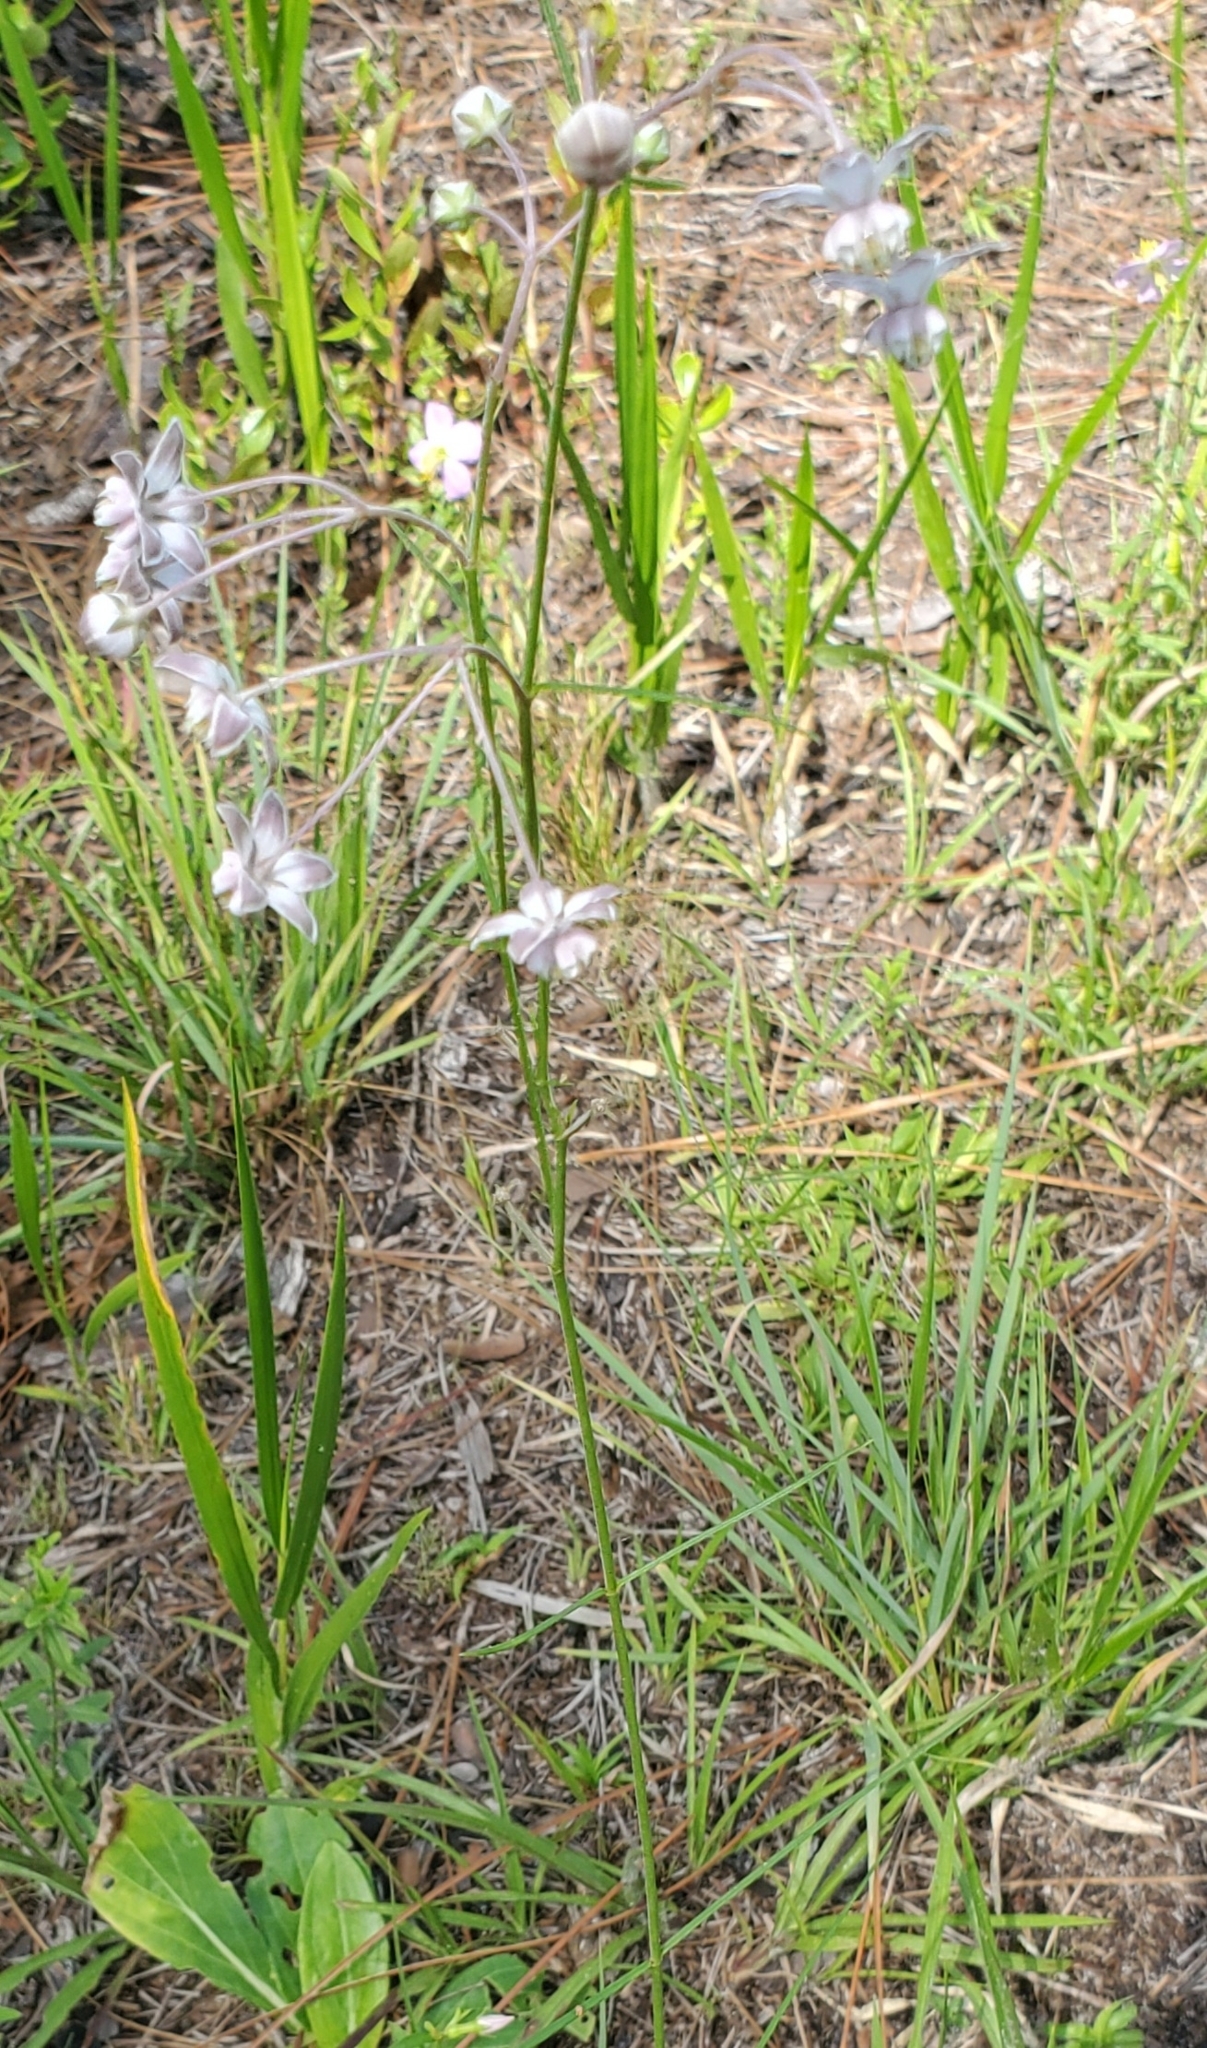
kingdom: Plantae
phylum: Tracheophyta
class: Magnoliopsida
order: Gentianales
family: Apocynaceae
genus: Asclepias
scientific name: Asclepias cinerea
